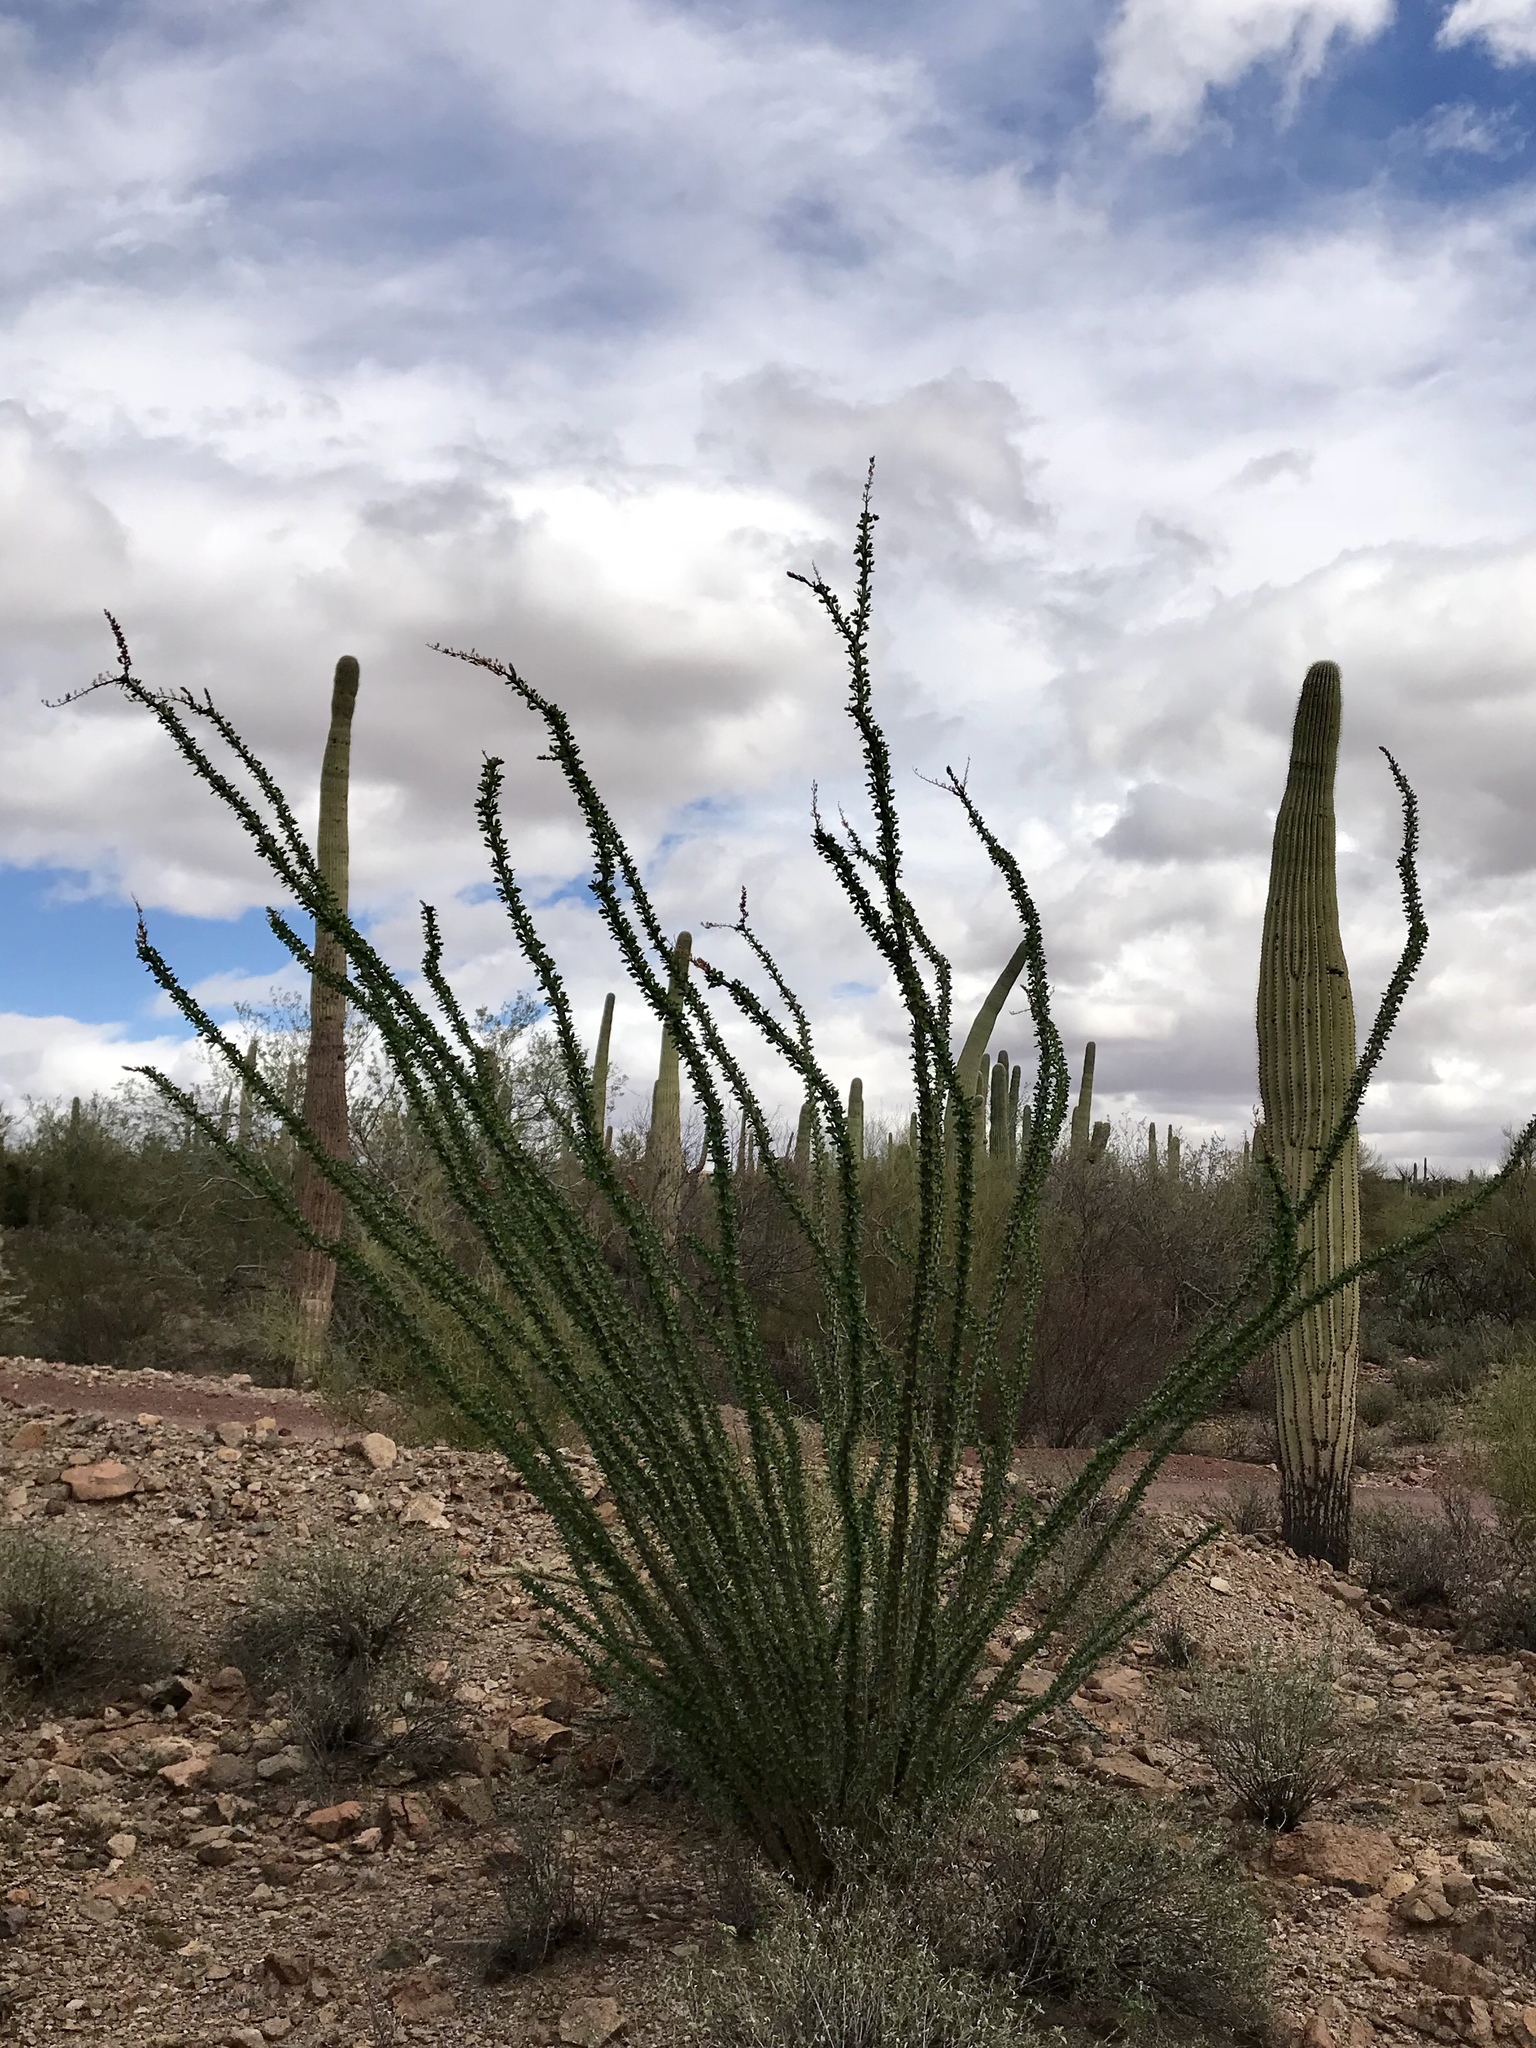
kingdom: Plantae
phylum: Tracheophyta
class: Magnoliopsida
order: Ericales
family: Fouquieriaceae
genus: Fouquieria
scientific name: Fouquieria splendens
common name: Vine-cactus
